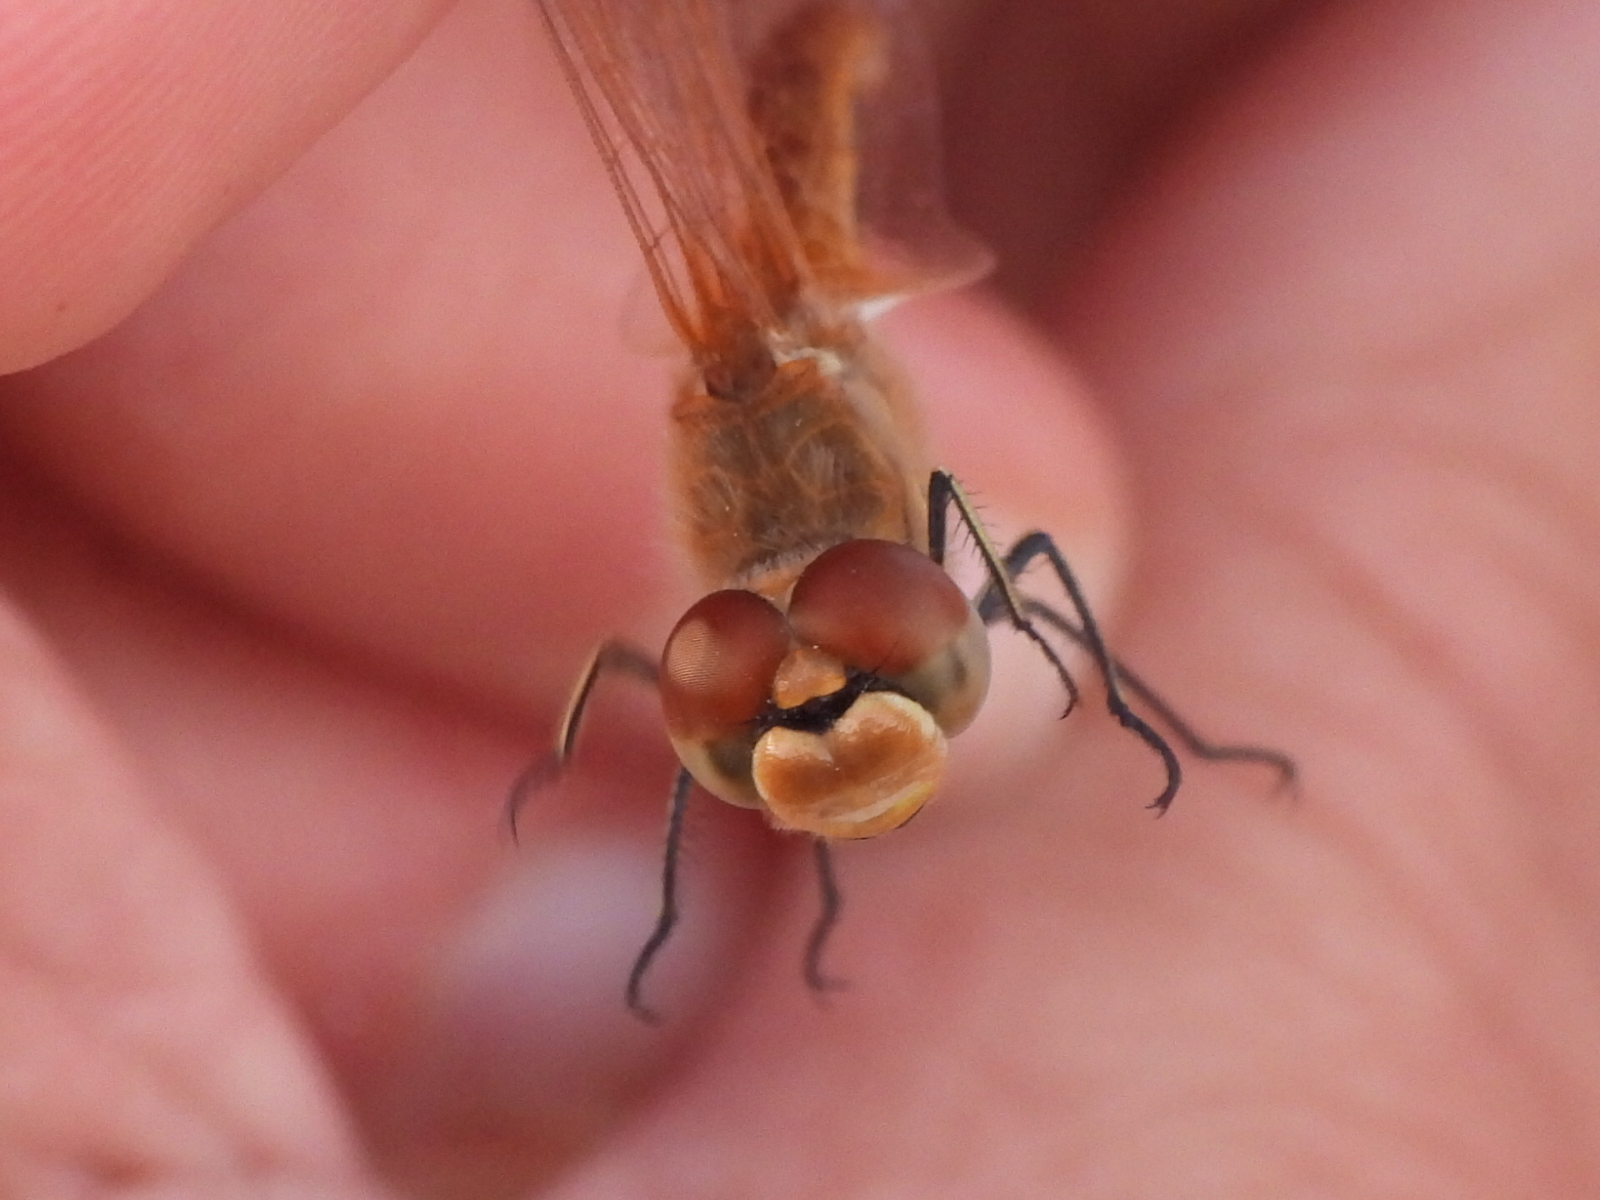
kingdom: Animalia
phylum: Arthropoda
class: Insecta
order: Odonata
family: Libellulidae
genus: Sympetrum
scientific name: Sympetrum fonscolombii
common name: Red-veined darter
